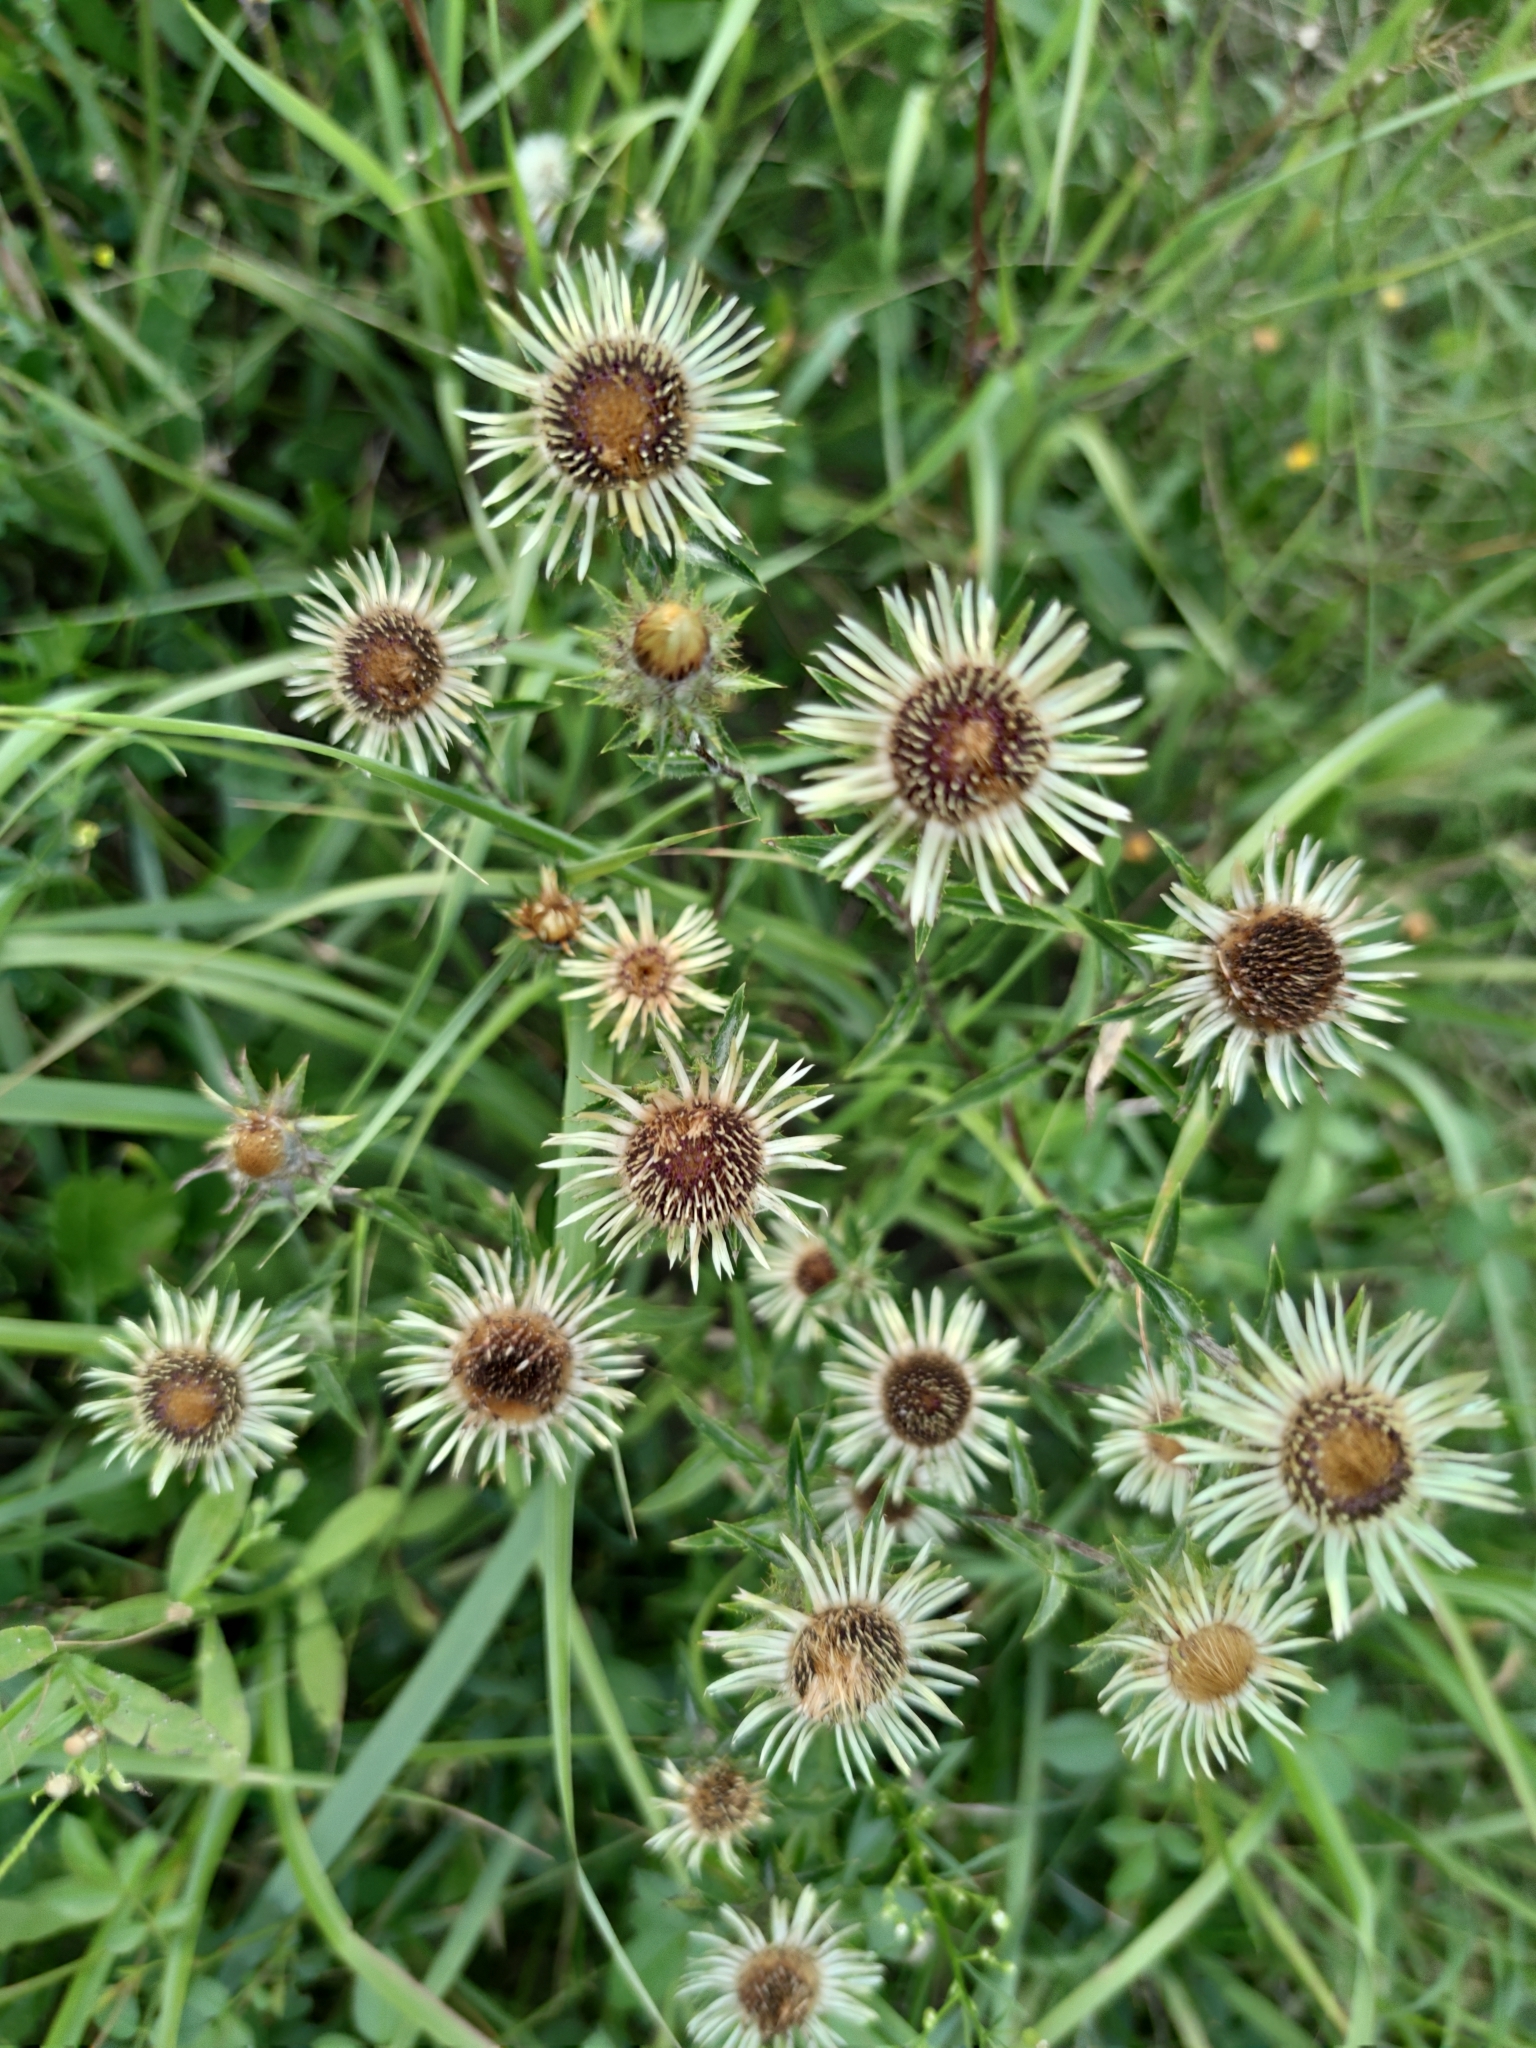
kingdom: Plantae
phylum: Tracheophyta
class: Magnoliopsida
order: Asterales
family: Asteraceae
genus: Carlina
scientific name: Carlina vulgaris
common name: Carline thistle
